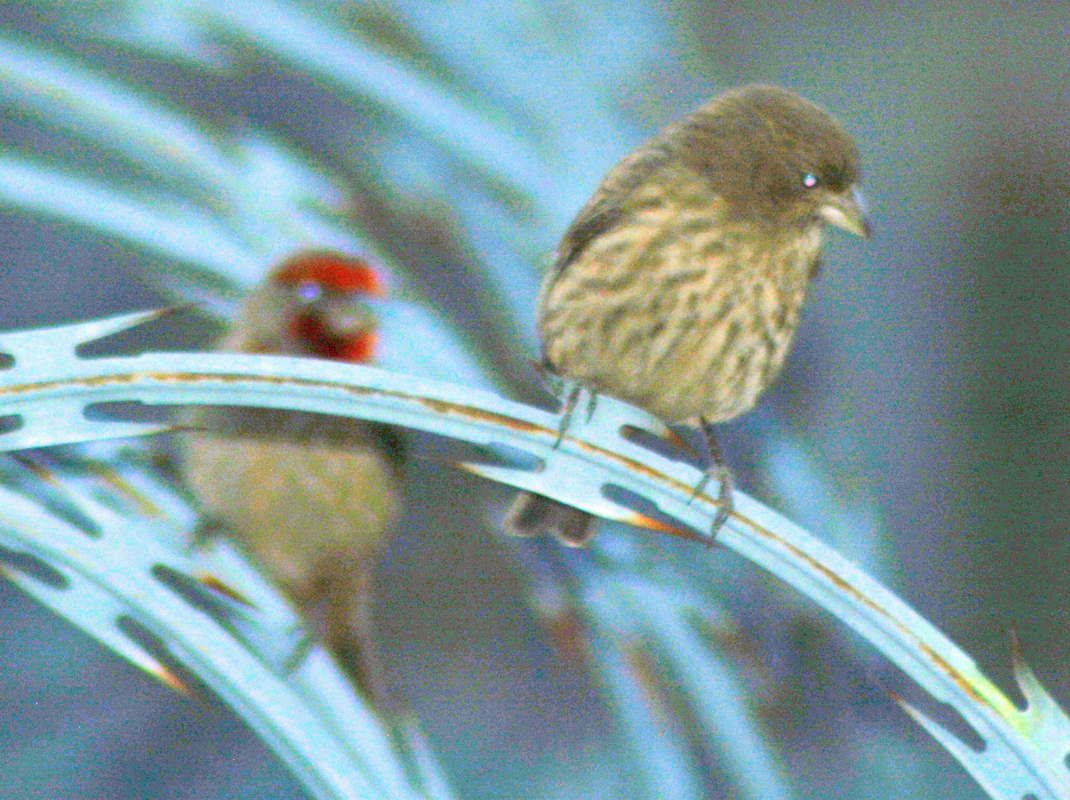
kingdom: Animalia
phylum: Chordata
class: Aves
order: Passeriformes
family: Fringillidae
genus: Haemorhous
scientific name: Haemorhous mexicanus
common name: House finch
